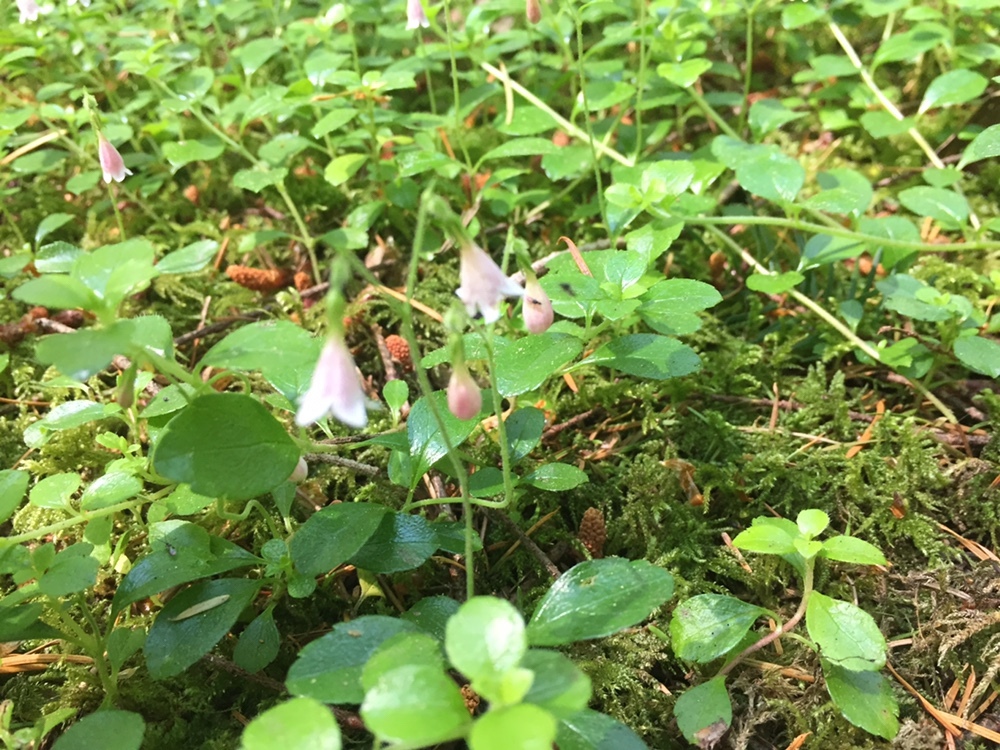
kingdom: Plantae
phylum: Tracheophyta
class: Magnoliopsida
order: Dipsacales
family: Caprifoliaceae
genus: Linnaea
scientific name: Linnaea borealis
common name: Twinflower
